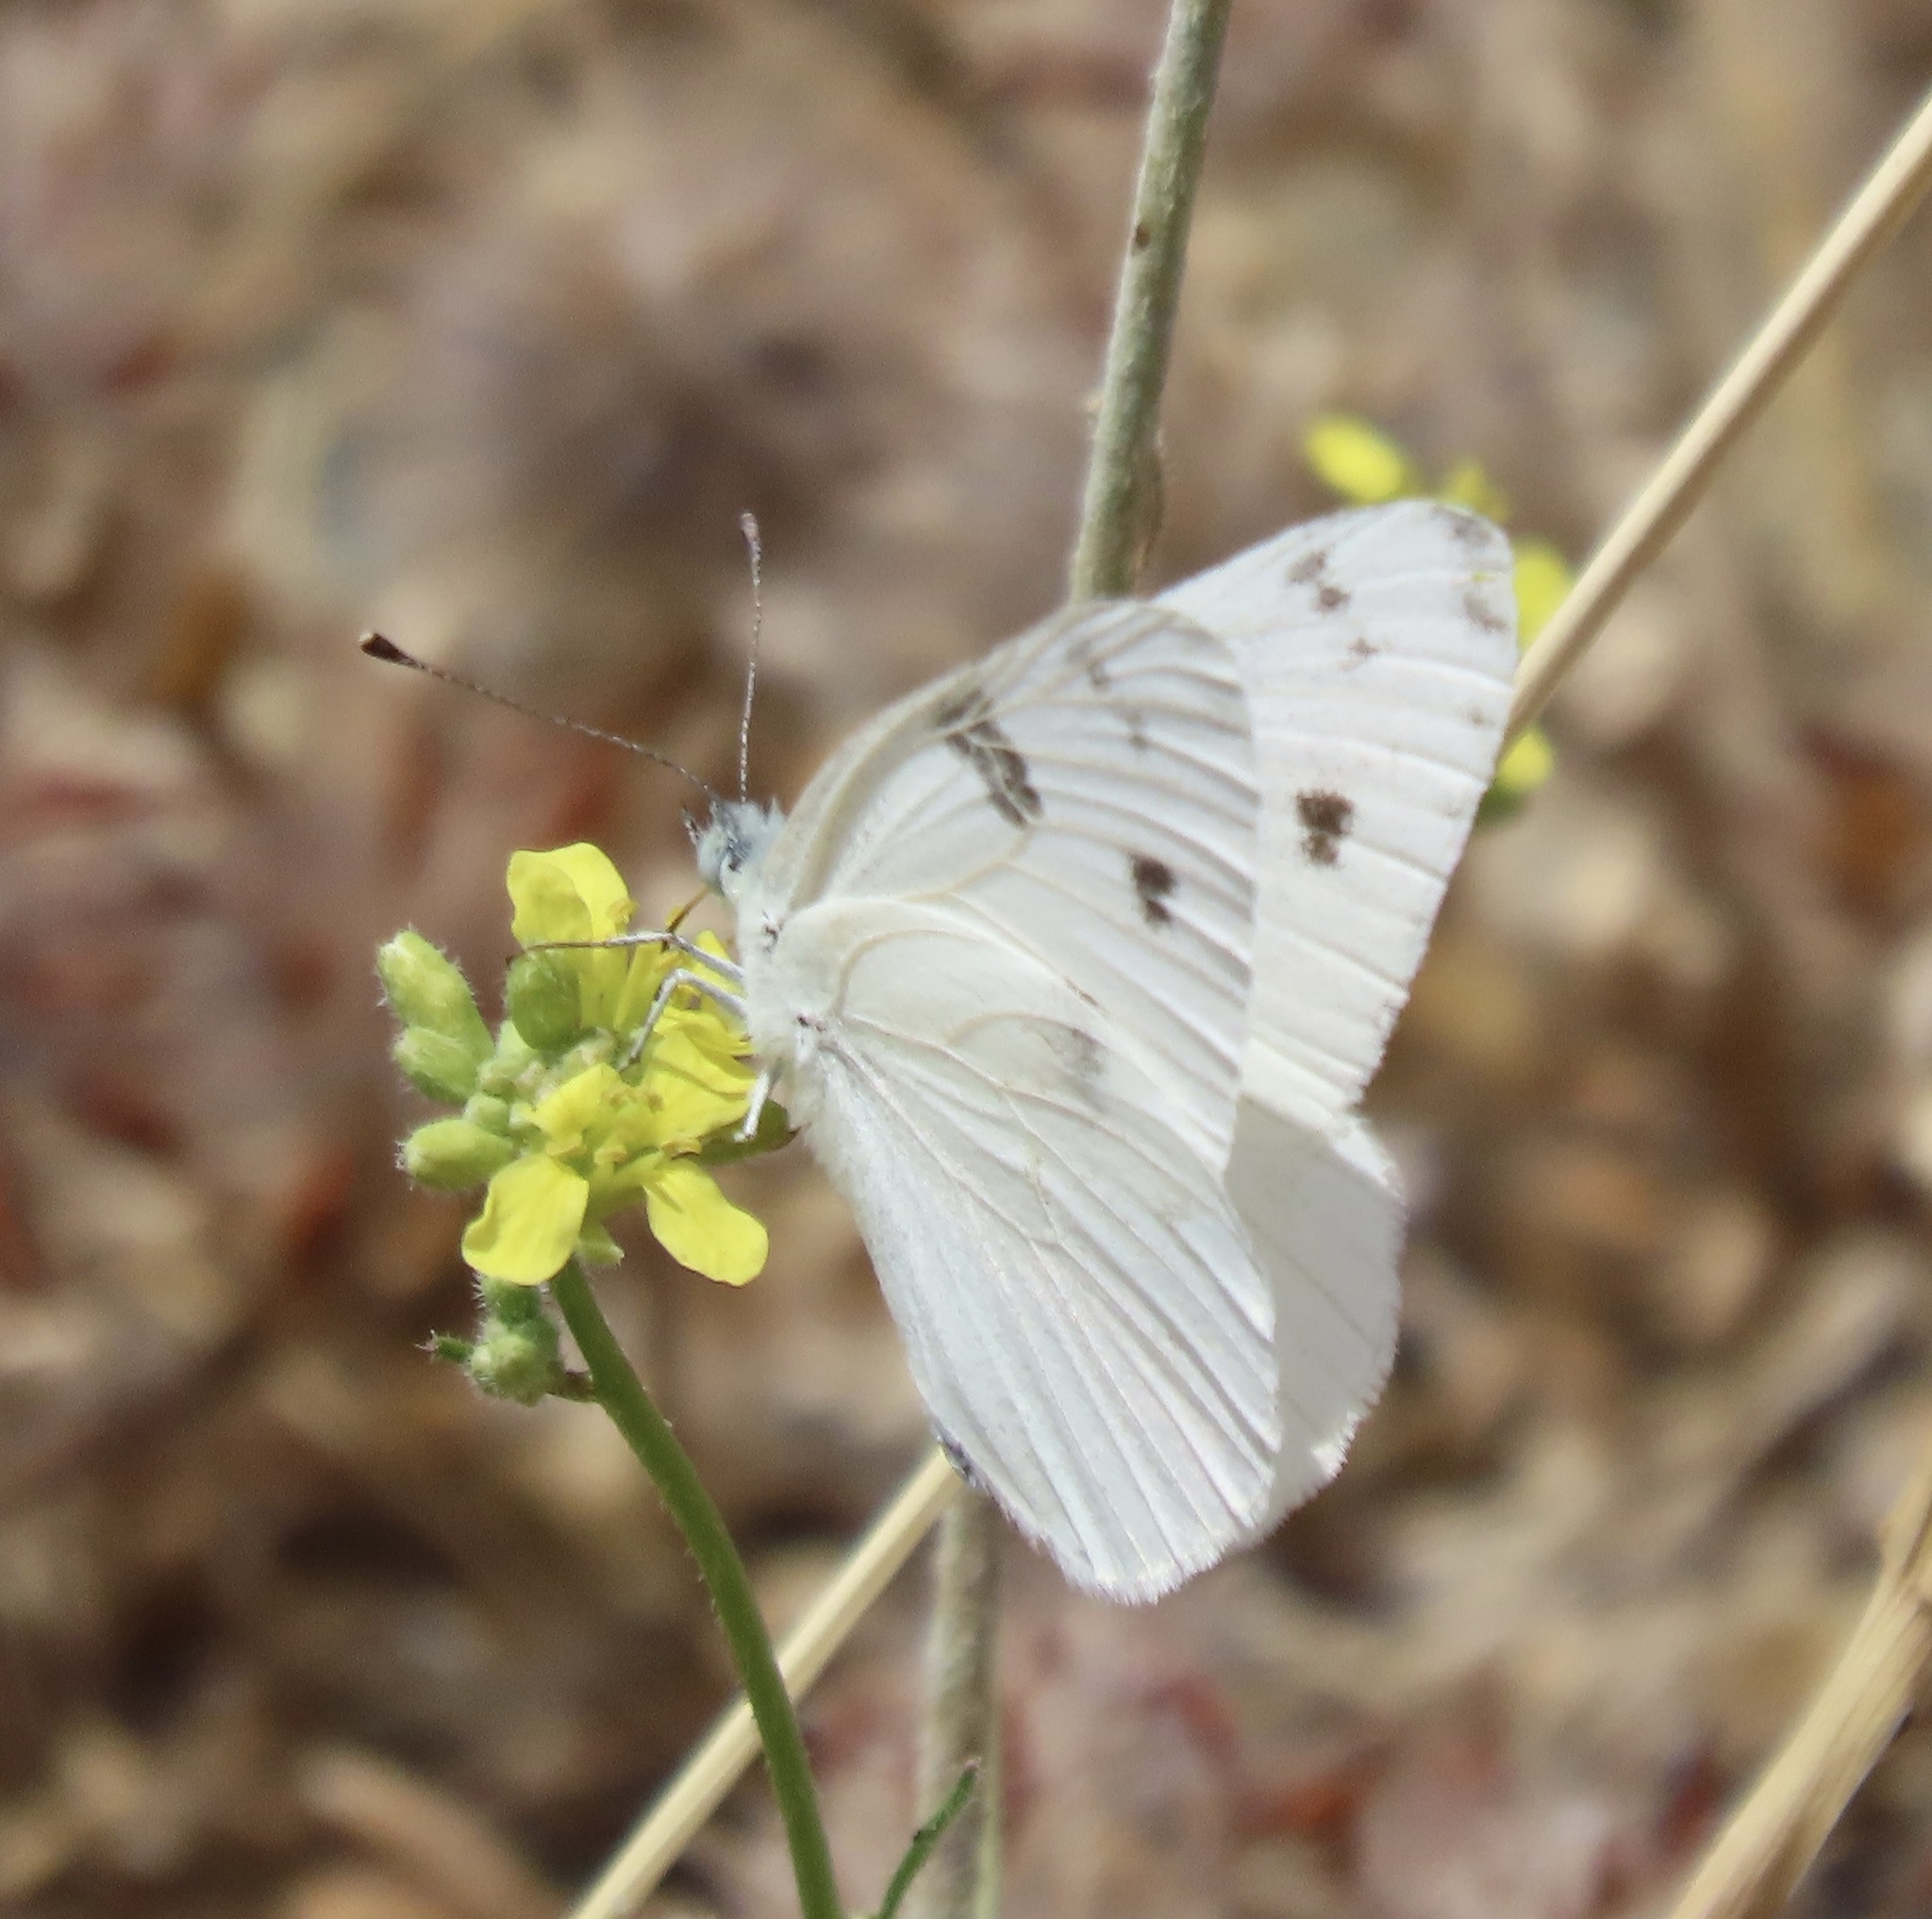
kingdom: Animalia
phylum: Arthropoda
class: Insecta
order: Lepidoptera
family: Pieridae
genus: Pontia
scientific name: Pontia protodice
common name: Checkered white
